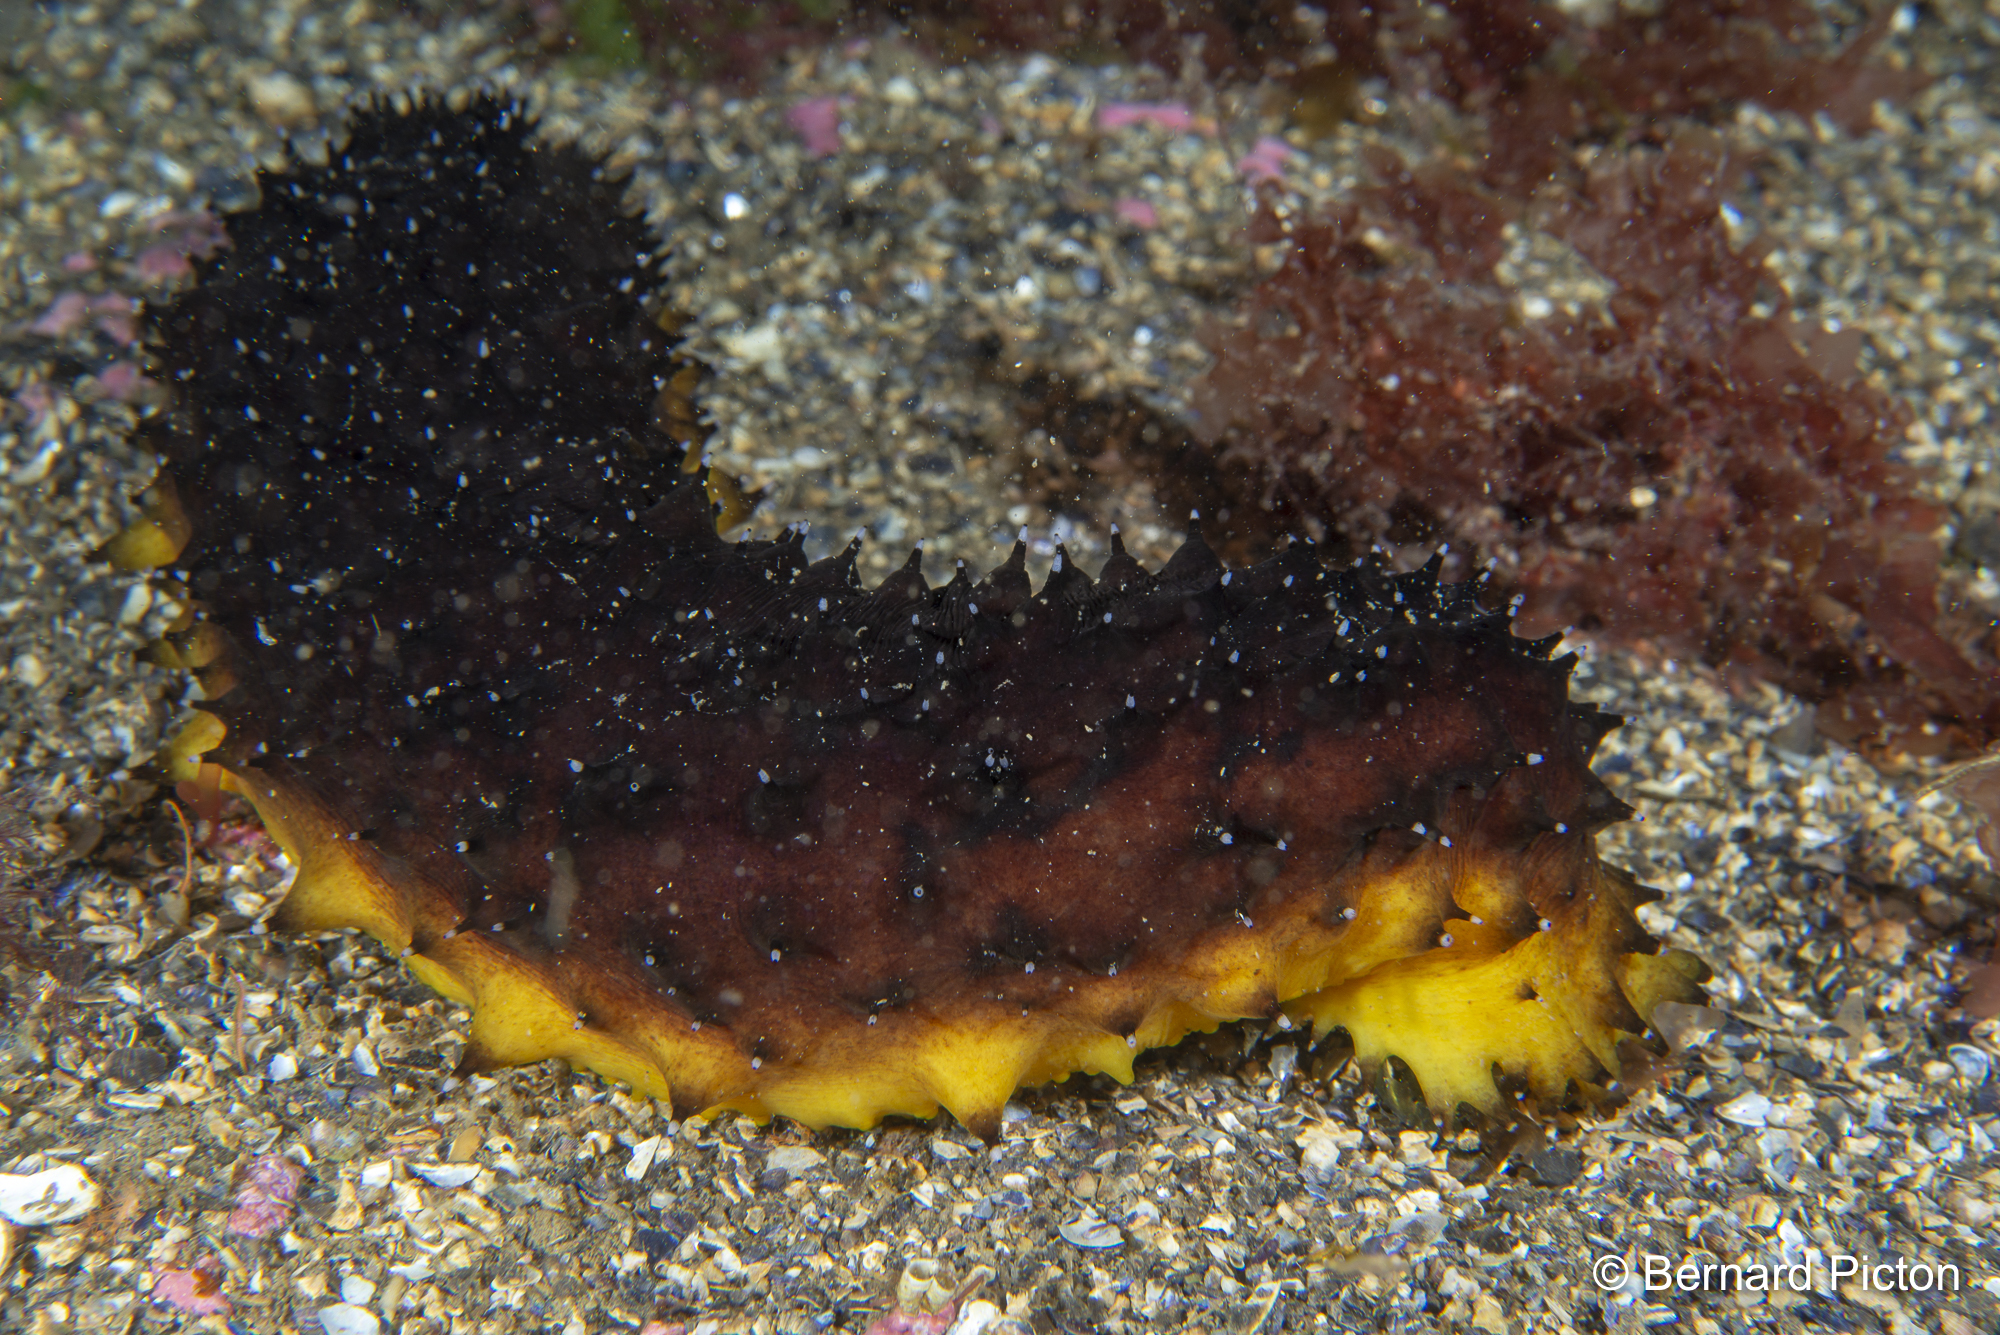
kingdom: Animalia
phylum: Echinodermata
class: Holothuroidea
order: Holothuriida
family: Holothuriidae
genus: Holothuria
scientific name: Holothuria forskali
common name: Black sea cucumber
